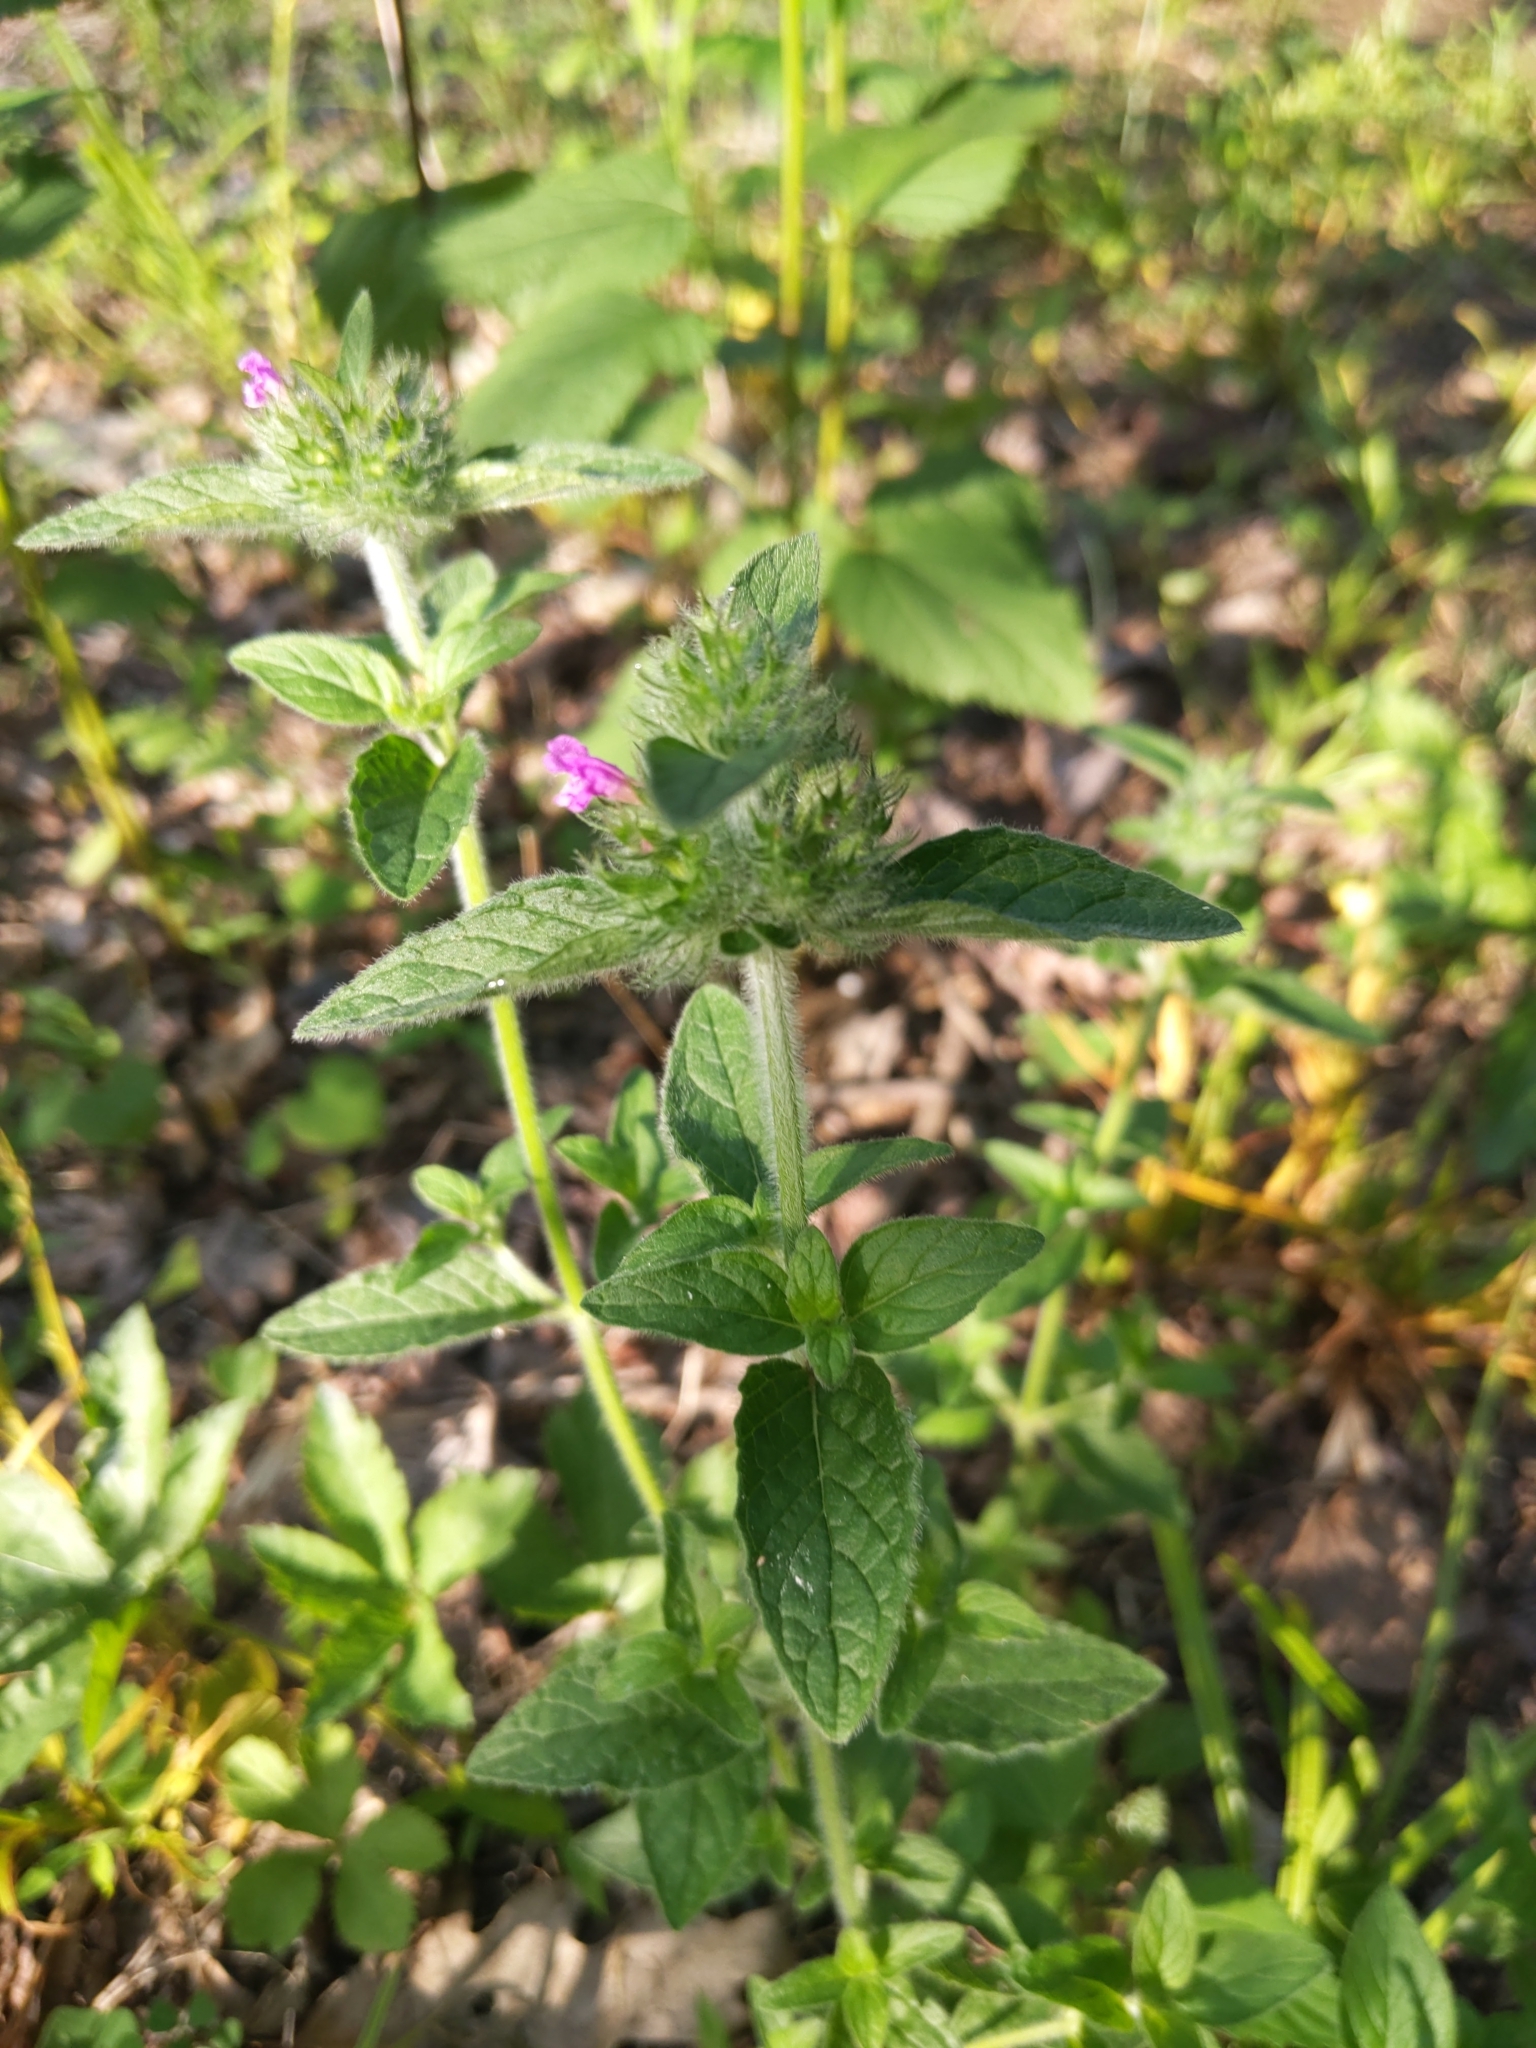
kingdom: Plantae
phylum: Tracheophyta
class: Magnoliopsida
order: Lamiales
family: Lamiaceae
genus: Clinopodium
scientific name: Clinopodium vulgare
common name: Wild basil
